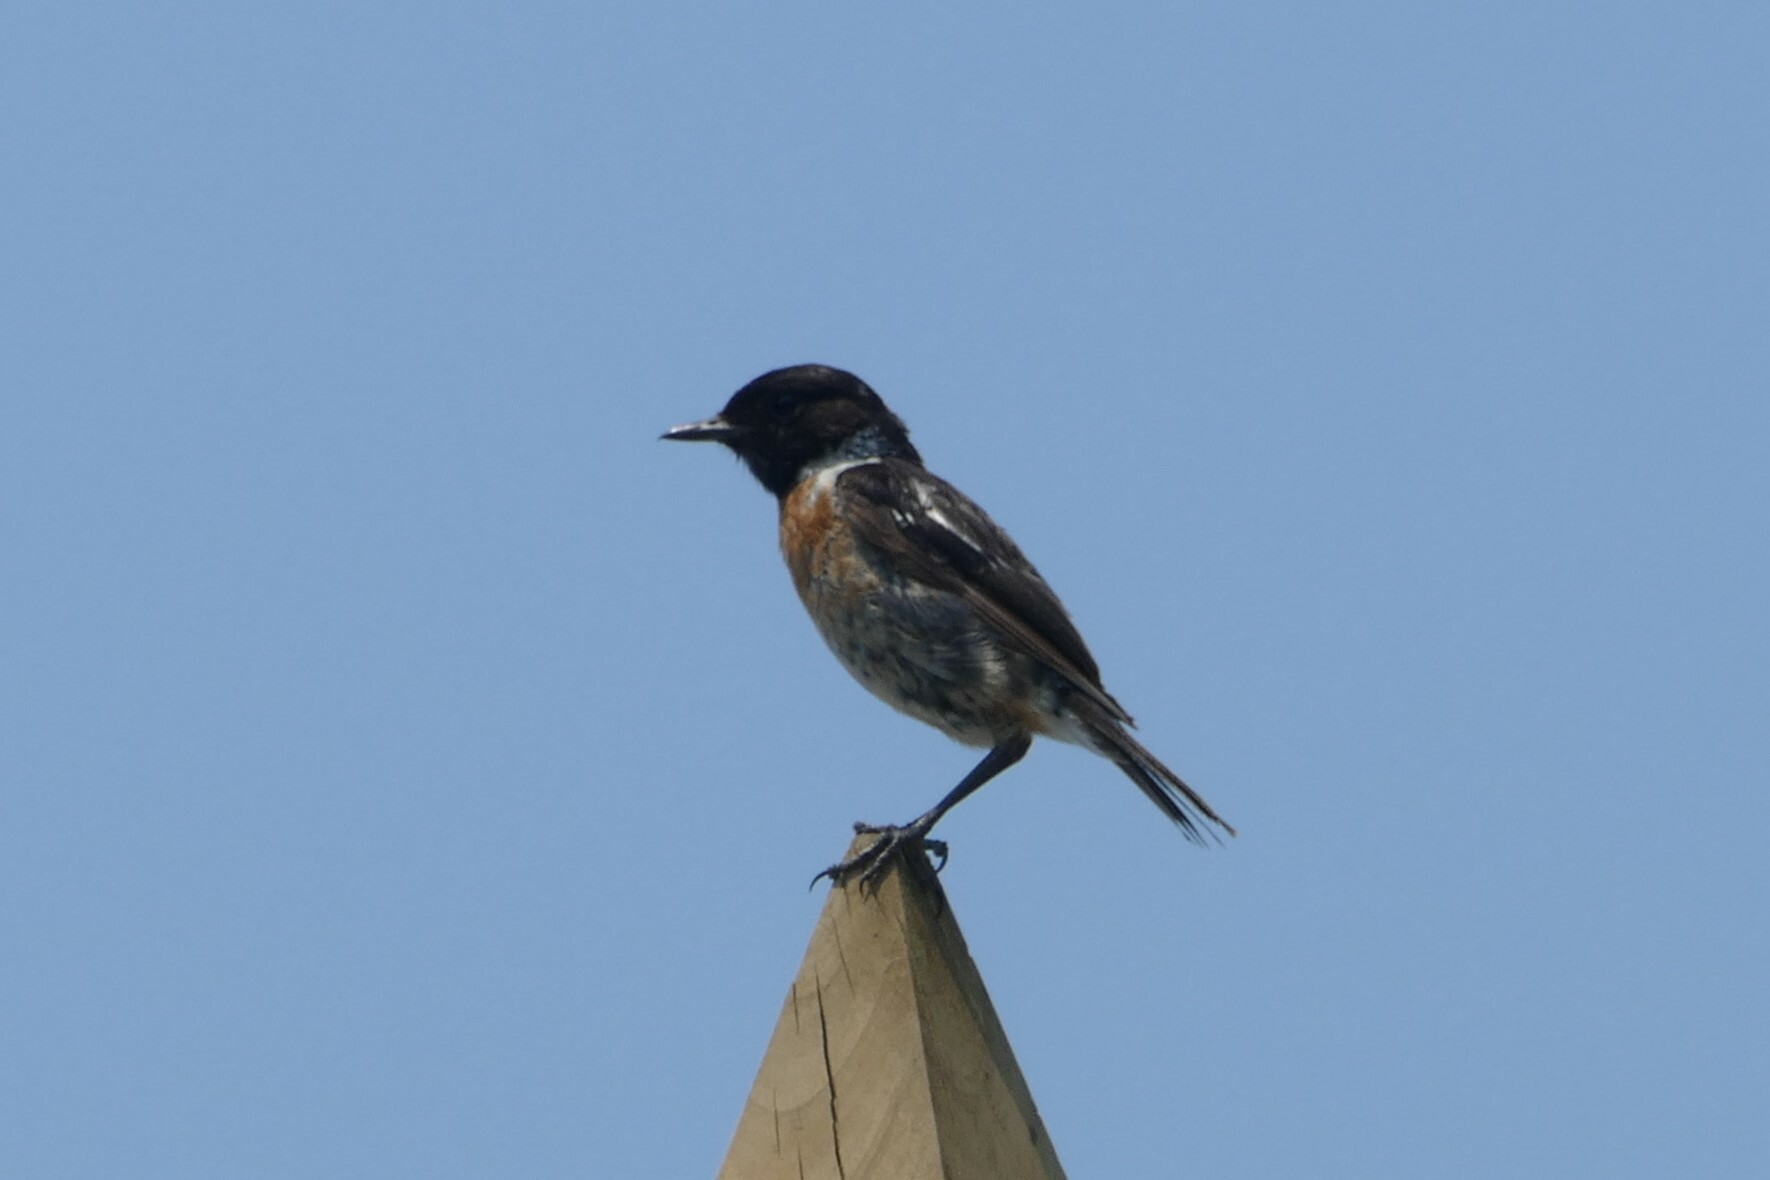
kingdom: Animalia
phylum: Chordata
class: Aves
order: Passeriformes
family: Muscicapidae
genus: Saxicola
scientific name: Saxicola rubicola
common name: European stonechat
